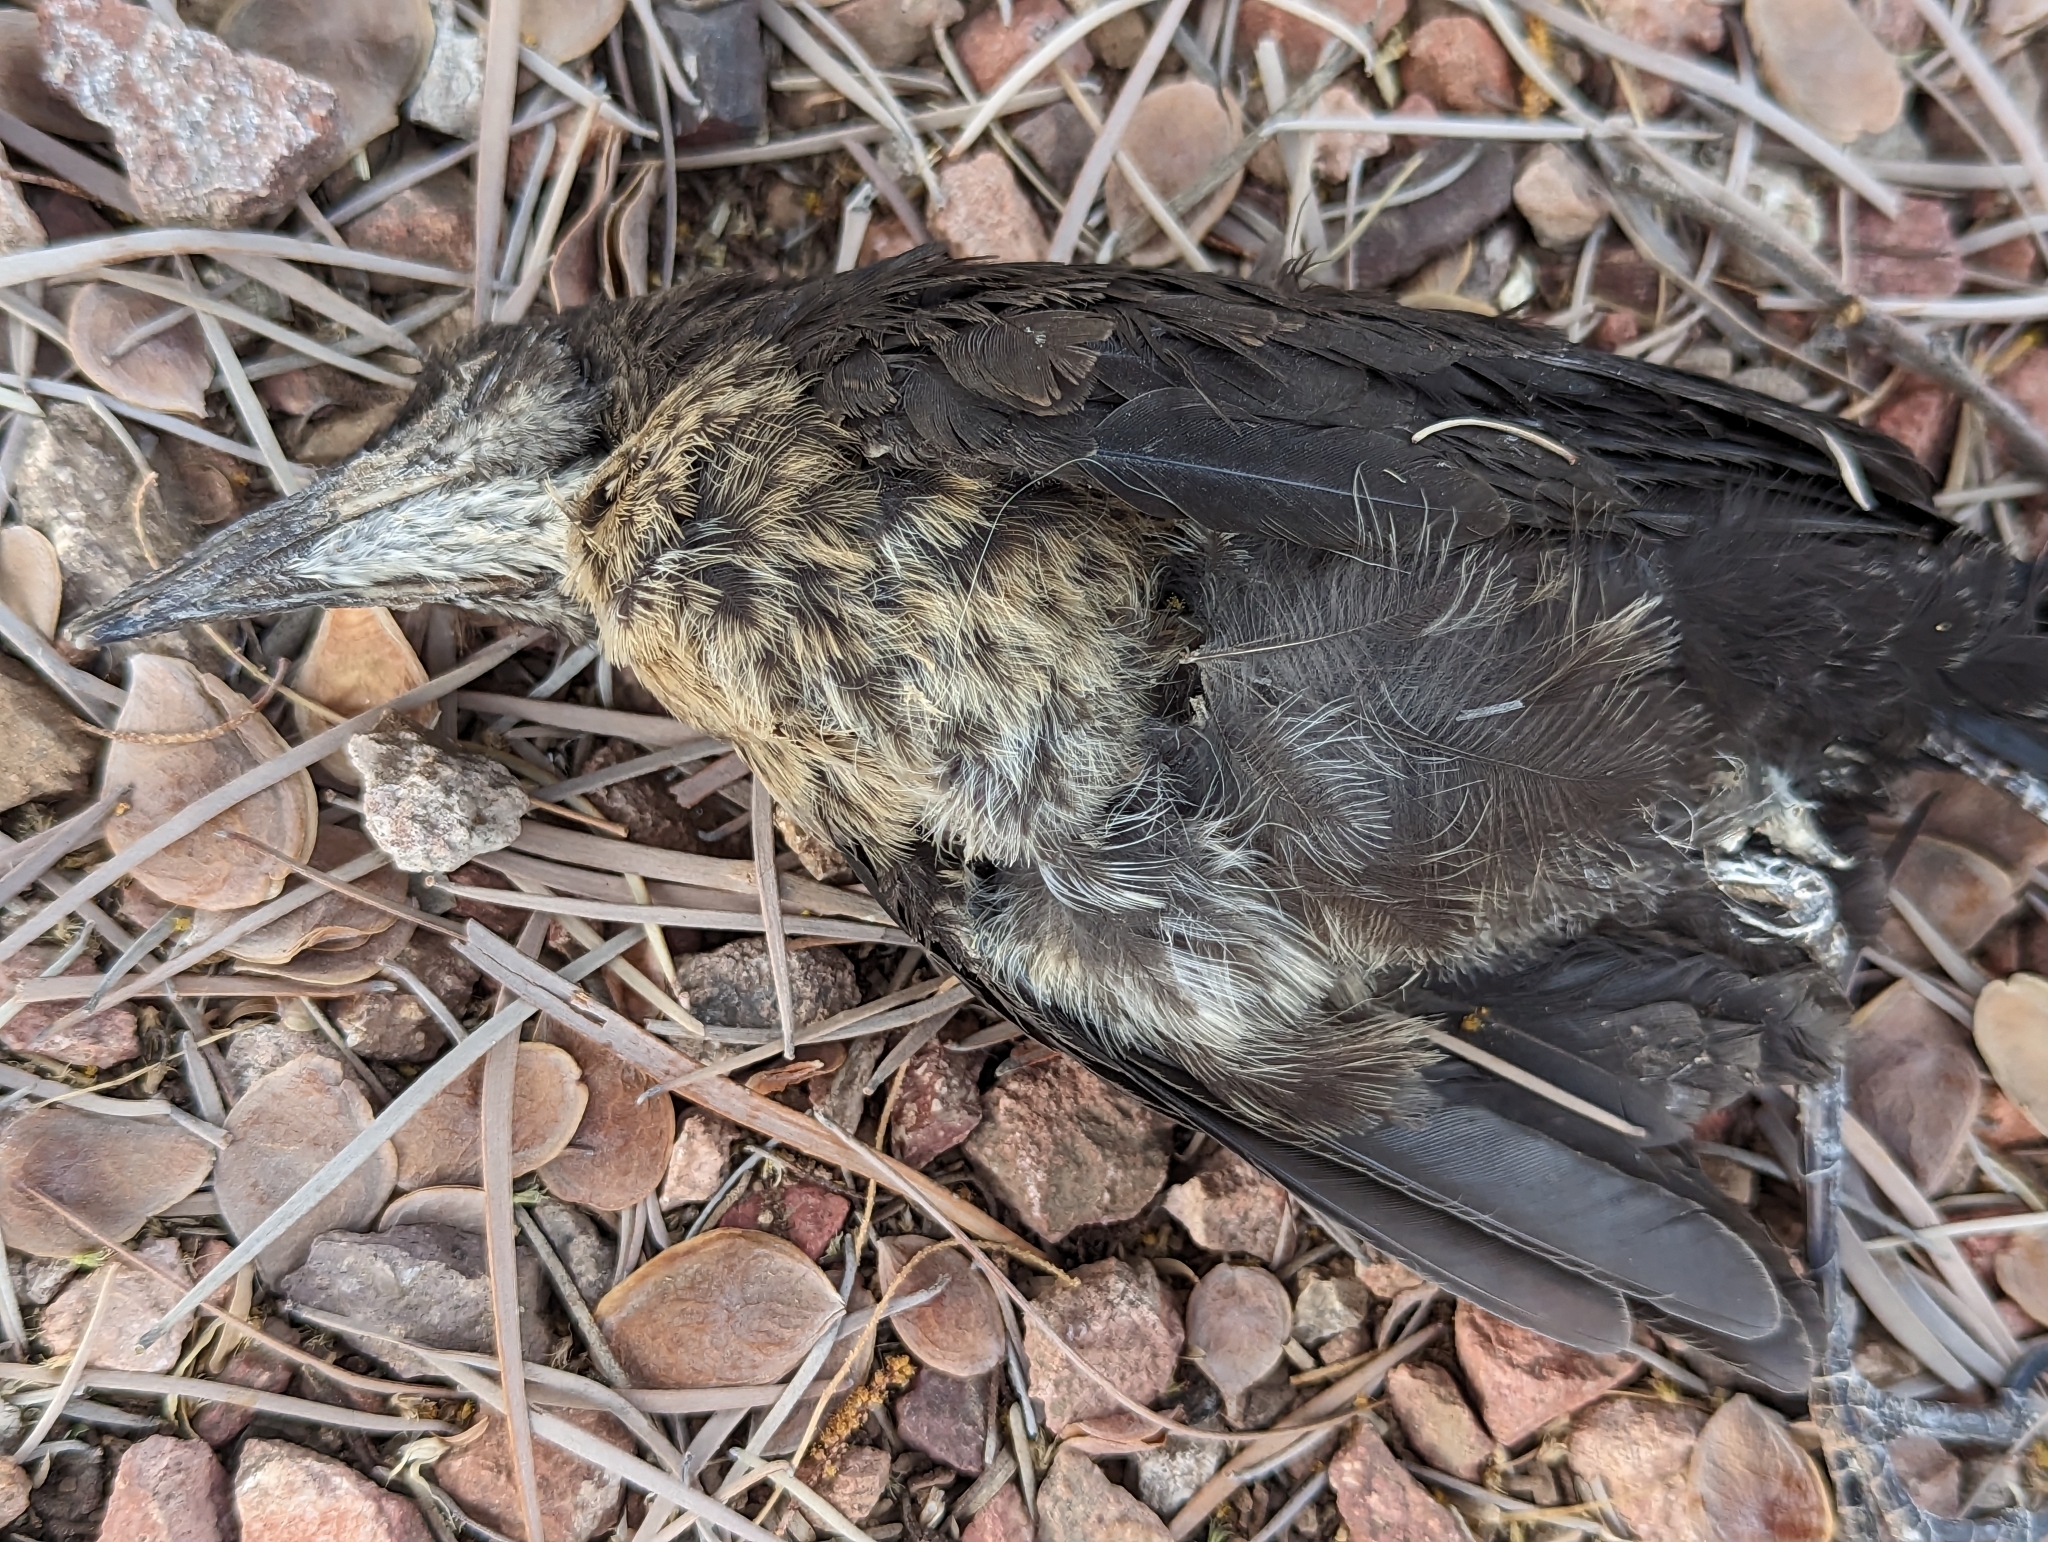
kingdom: Animalia
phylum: Chordata
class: Aves
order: Passeriformes
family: Icteridae
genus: Quiscalus
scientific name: Quiscalus mexicanus
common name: Great-tailed grackle
